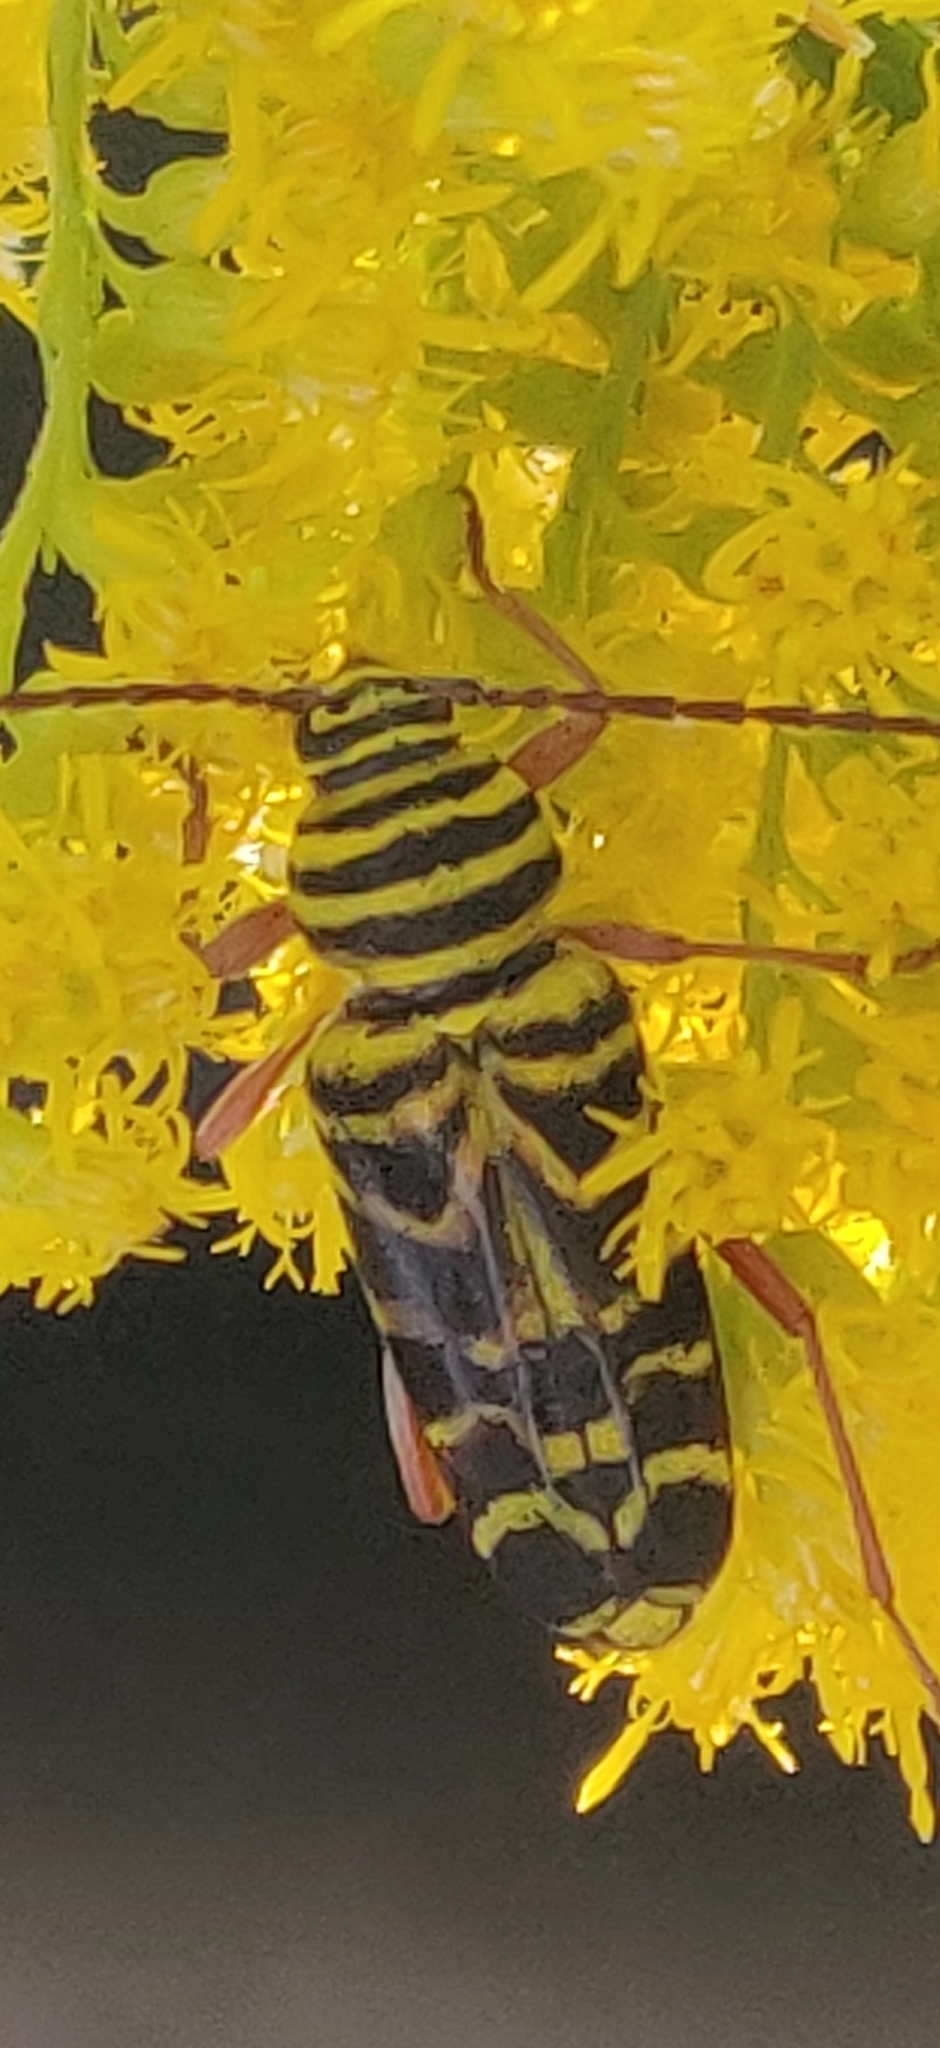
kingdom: Animalia
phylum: Arthropoda
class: Insecta
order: Coleoptera
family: Cerambycidae
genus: Megacyllene
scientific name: Megacyllene robiniae
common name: Locust borer
